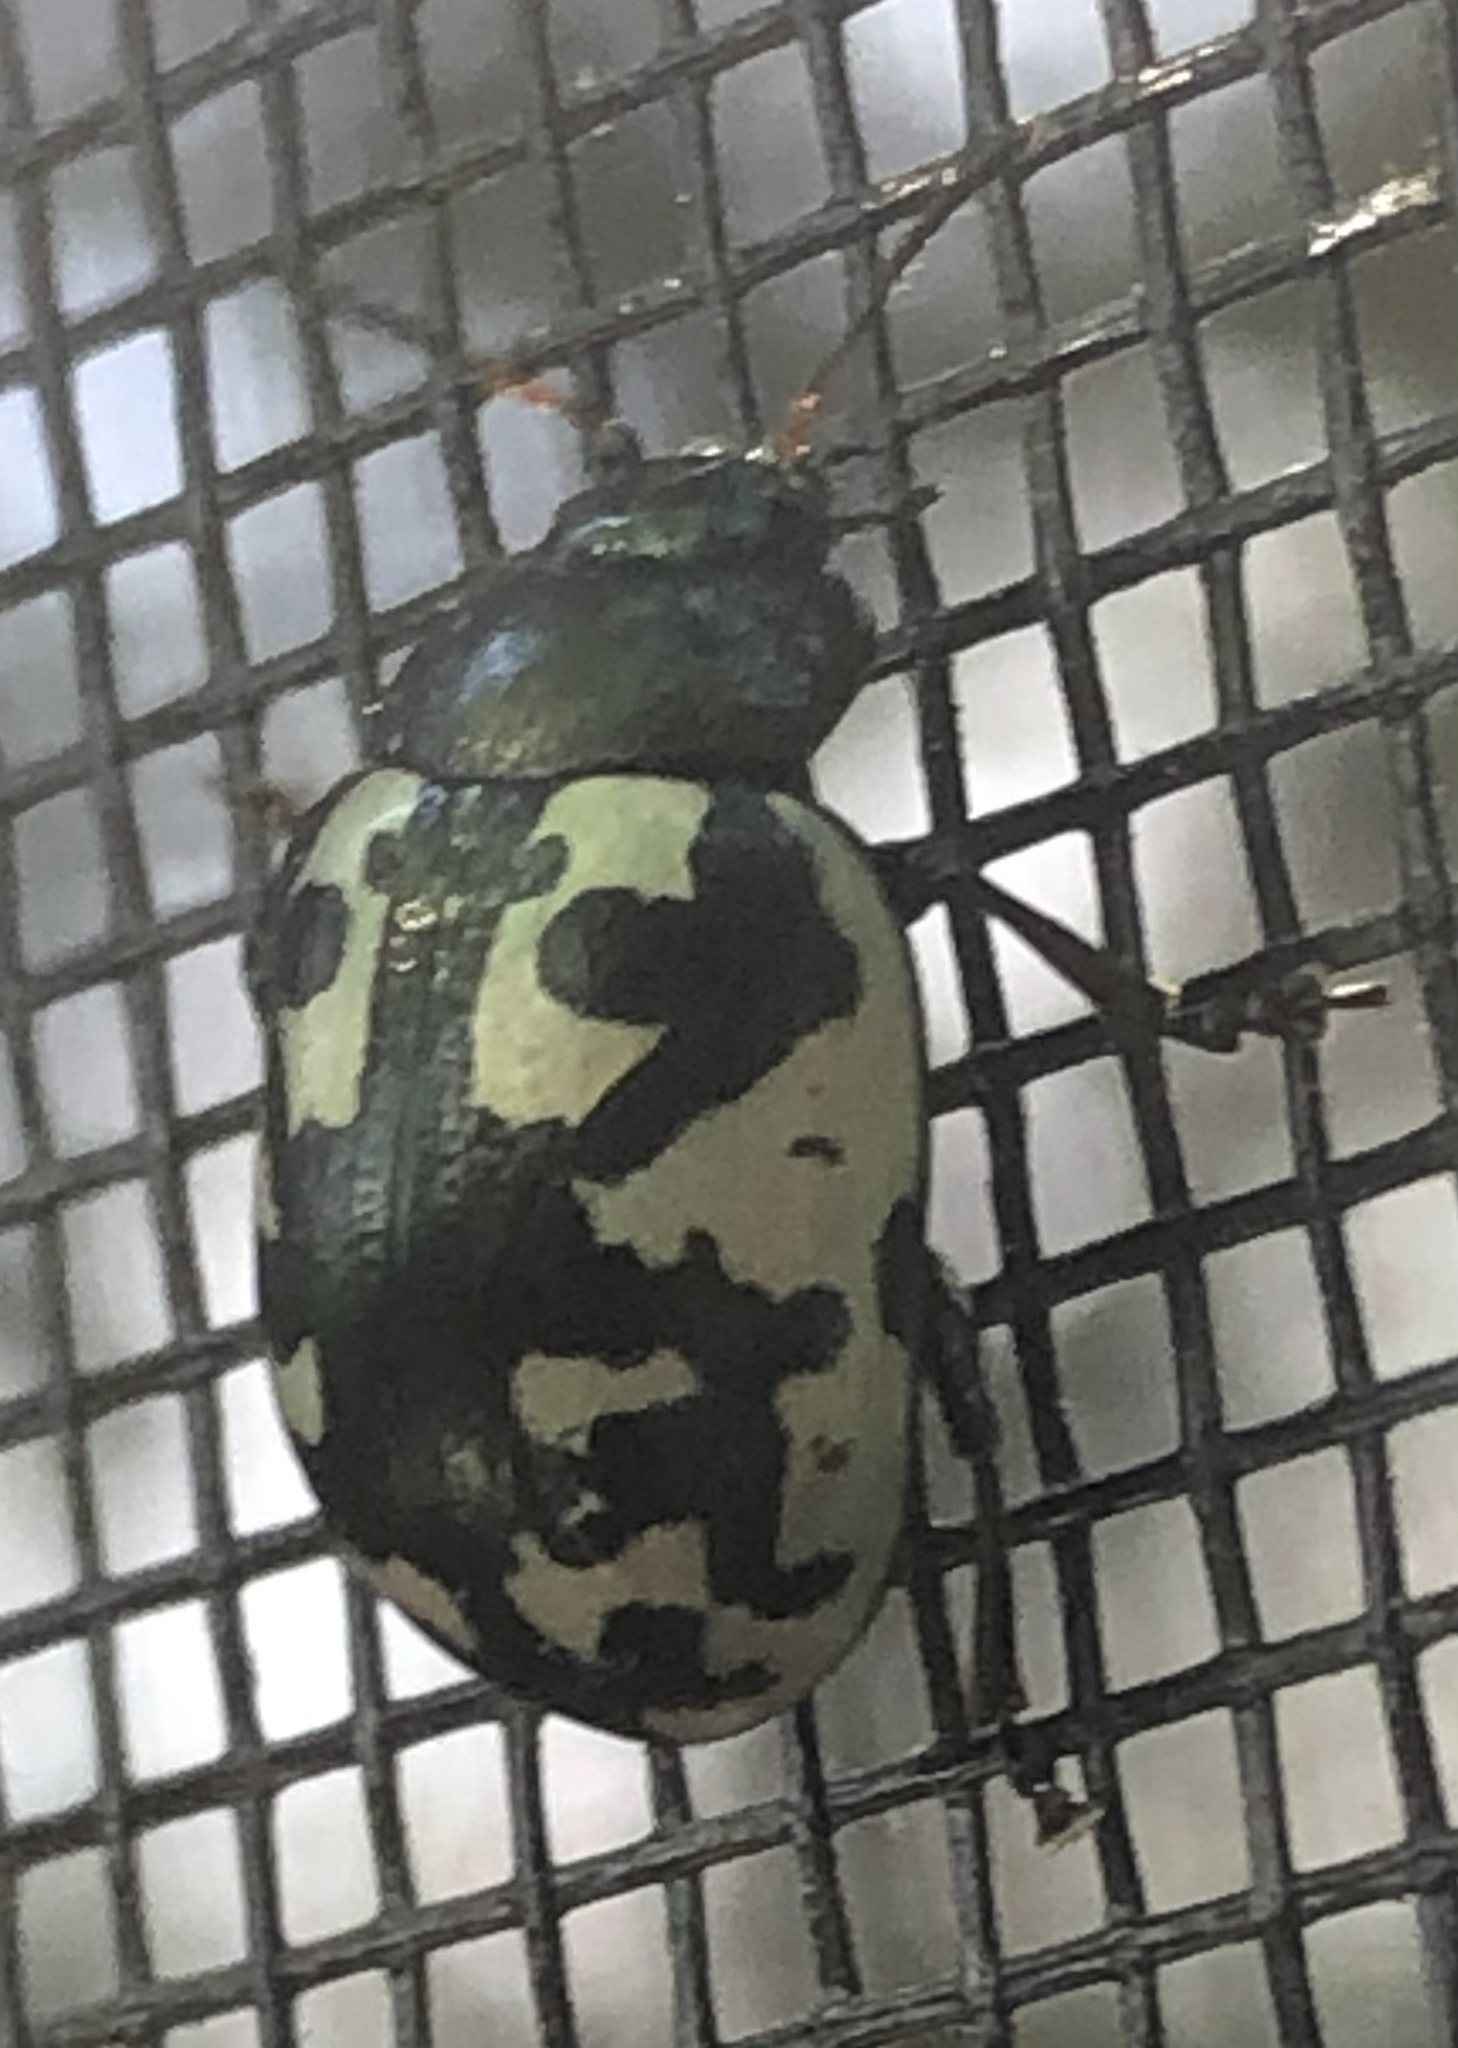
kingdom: Animalia
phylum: Arthropoda
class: Insecta
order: Coleoptera
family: Chrysomelidae
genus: Calligrapha
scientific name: Calligrapha pnirsa
